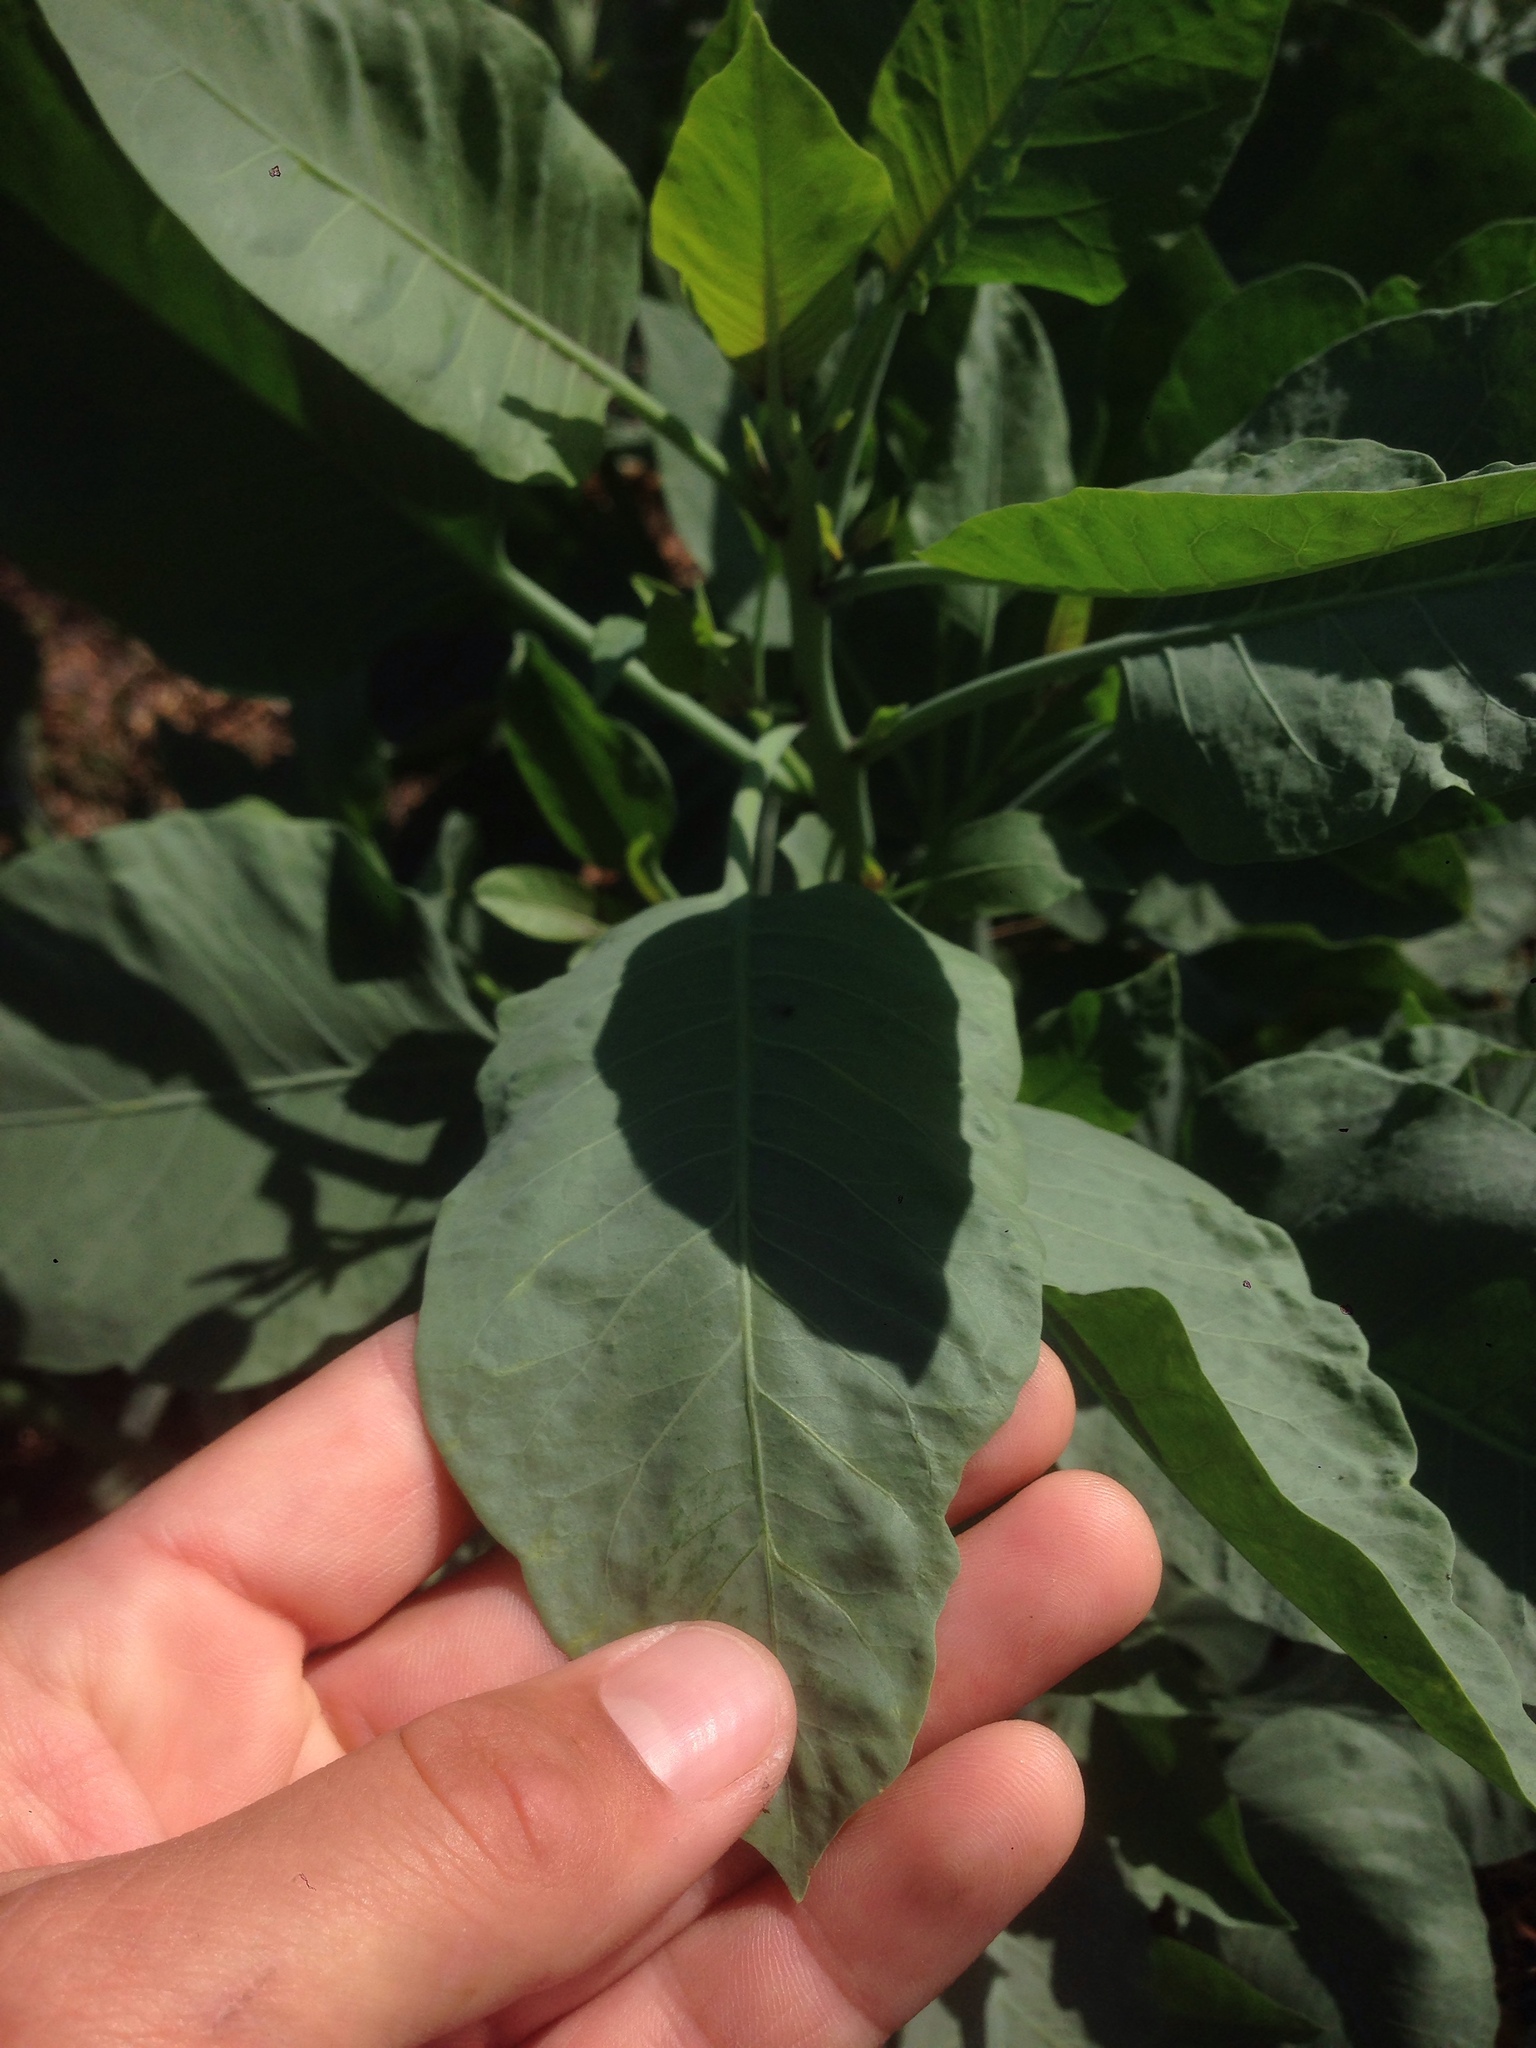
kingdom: Plantae
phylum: Tracheophyta
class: Magnoliopsida
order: Solanales
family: Solanaceae
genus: Nicotiana
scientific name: Nicotiana glauca
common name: Tree tobacco
